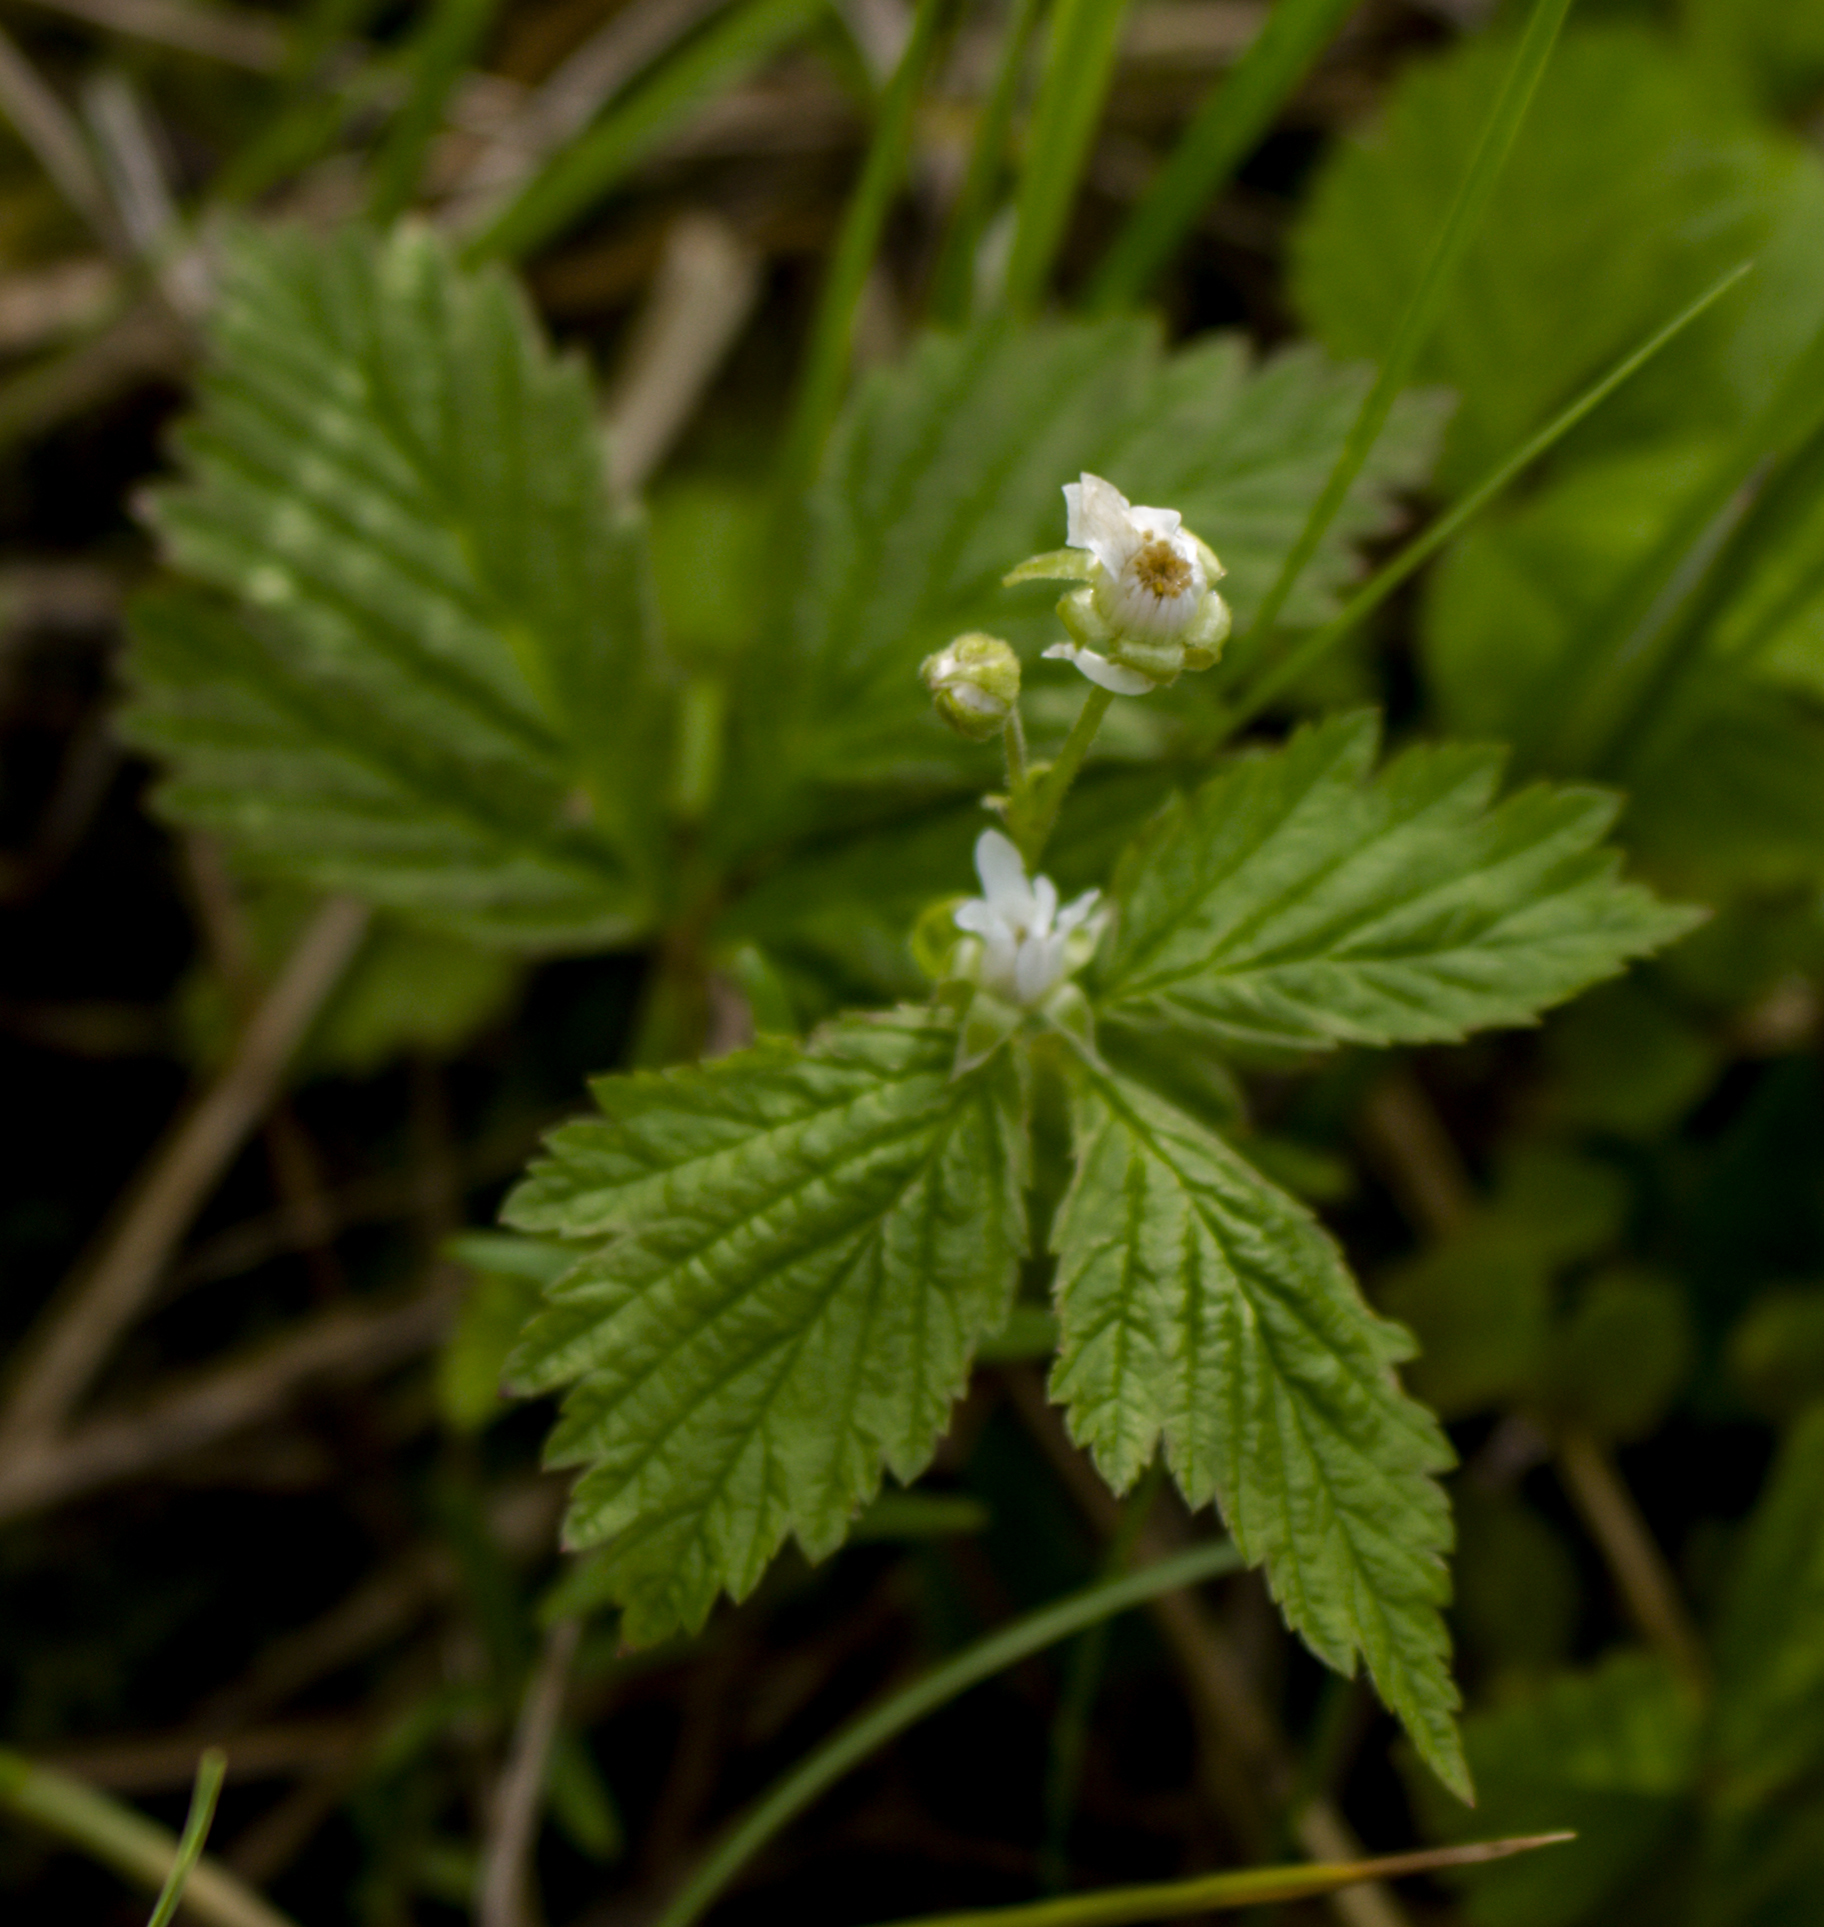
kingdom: Plantae
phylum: Tracheophyta
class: Magnoliopsida
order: Rosales
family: Rosaceae
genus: Rubus
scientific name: Rubus pubescens
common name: Dwarf raspberry
